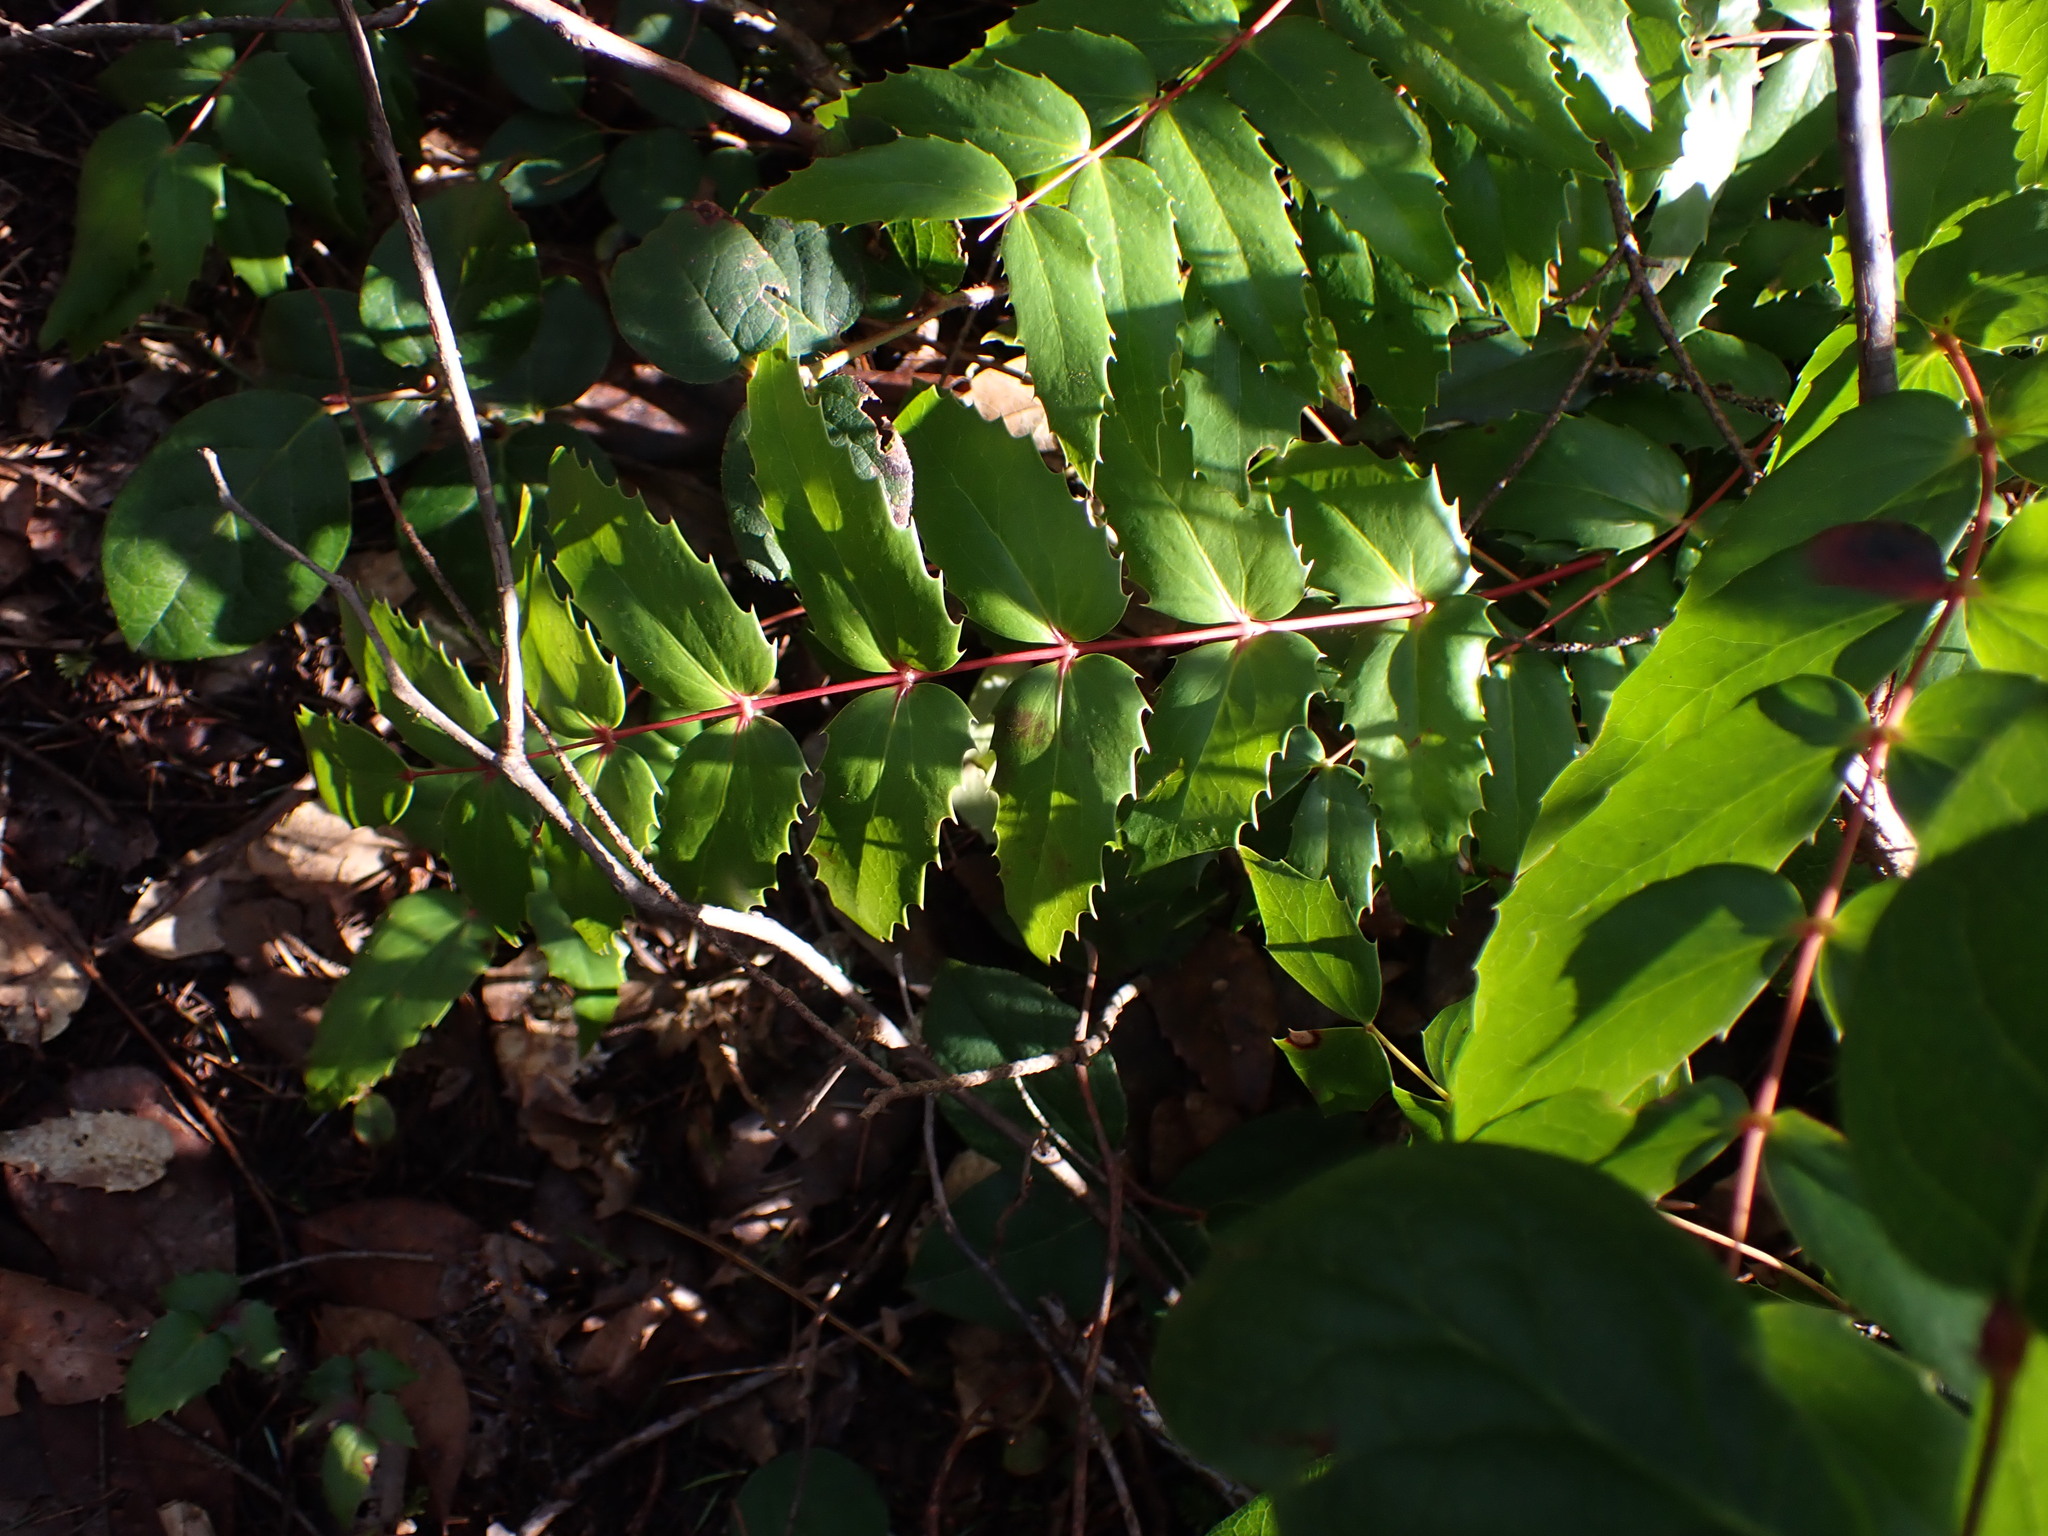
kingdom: Plantae
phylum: Tracheophyta
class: Magnoliopsida
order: Ranunculales
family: Berberidaceae
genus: Mahonia
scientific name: Mahonia nervosa
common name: Cascade oregon-grape
